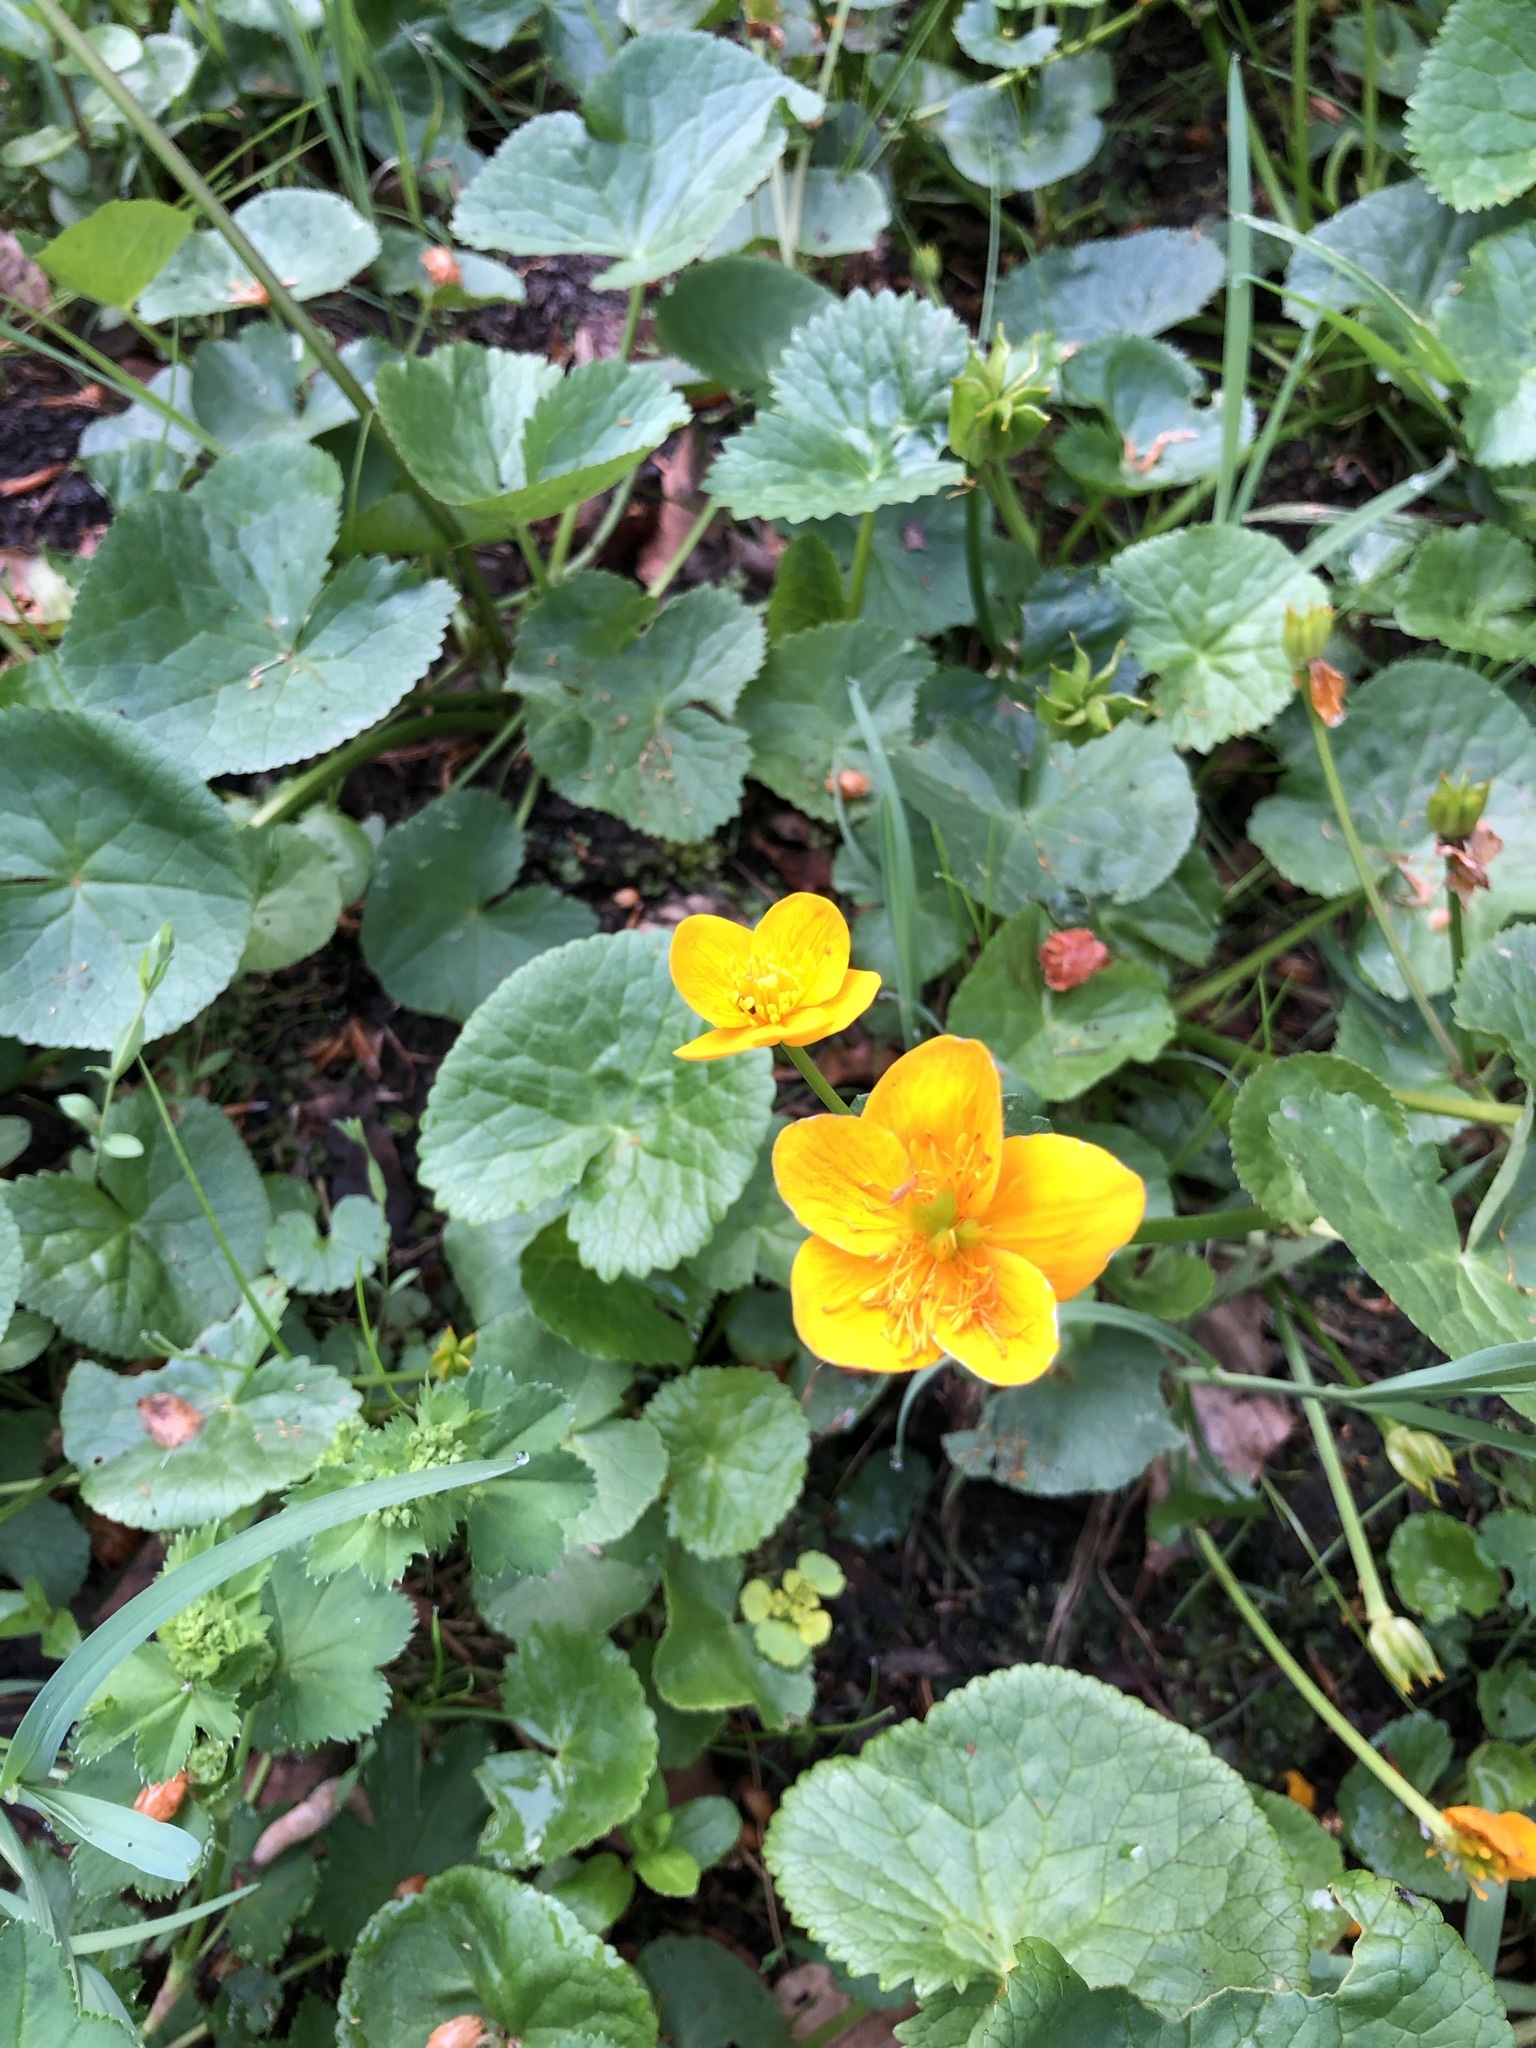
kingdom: Plantae
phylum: Tracheophyta
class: Magnoliopsida
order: Ranunculales
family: Ranunculaceae
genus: Caltha
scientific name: Caltha palustris
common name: Marsh marigold
